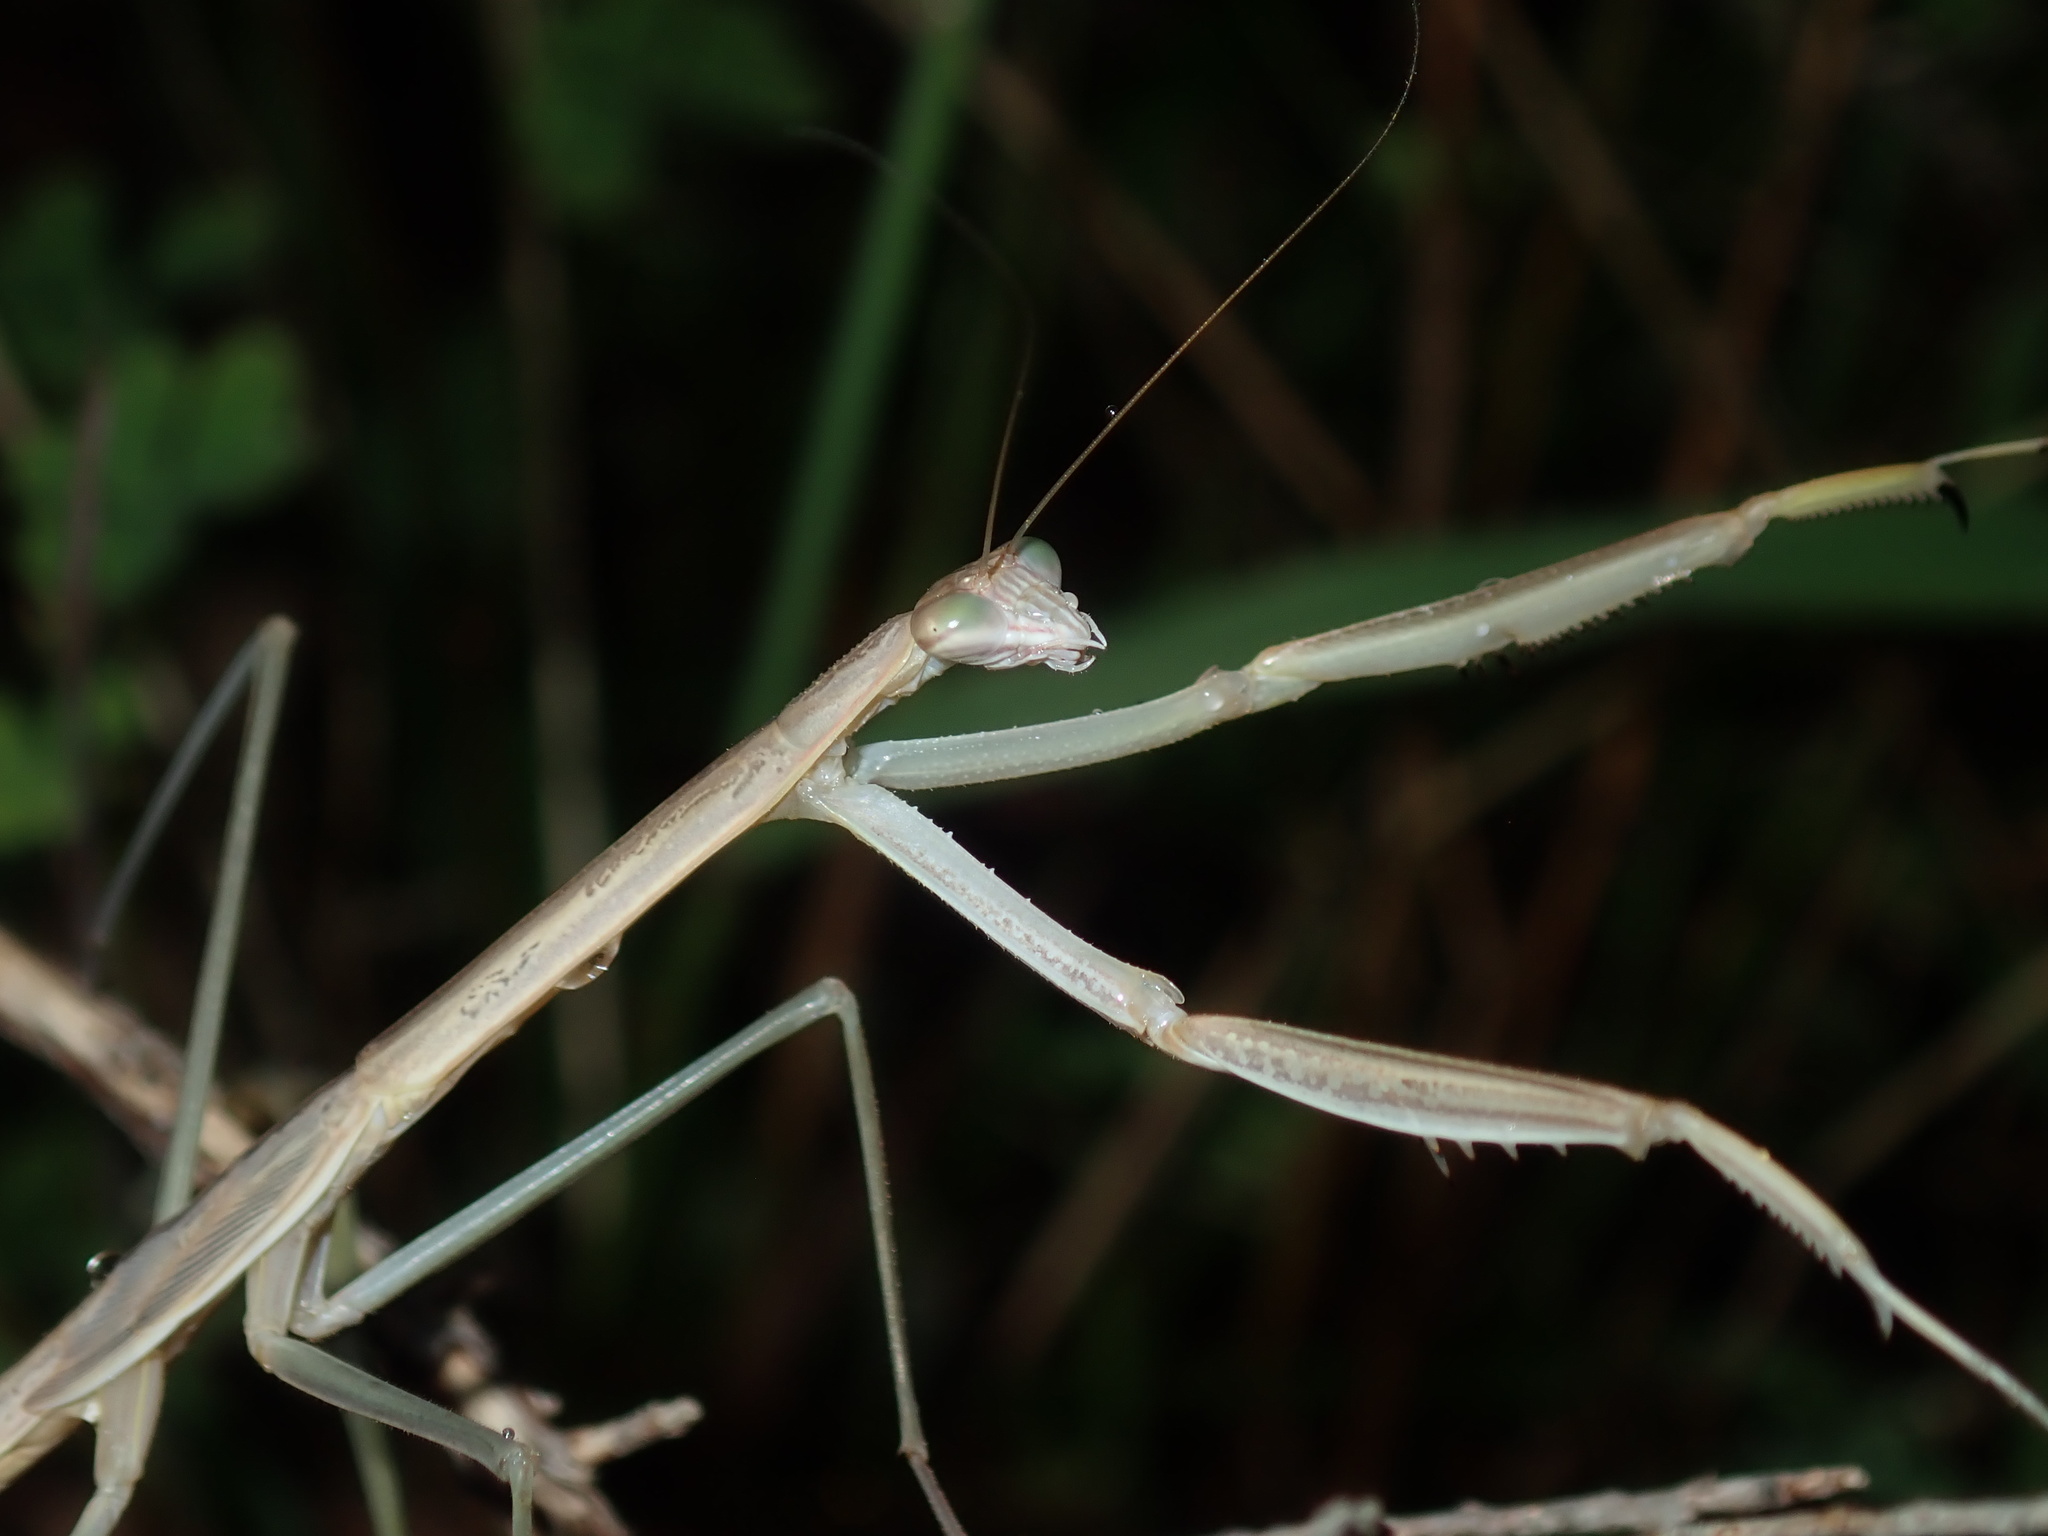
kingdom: Animalia
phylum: Arthropoda
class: Insecta
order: Mantodea
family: Mantidae
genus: Tenodera
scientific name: Tenodera australasiae
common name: Purple-winged mantis
